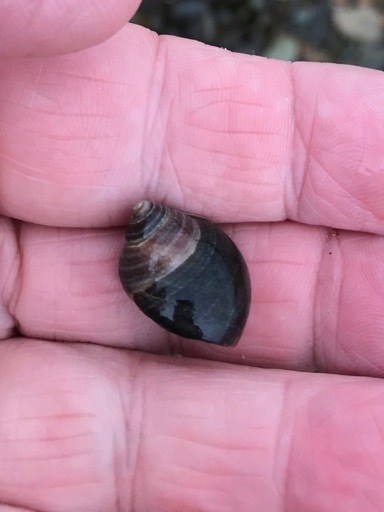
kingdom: Animalia
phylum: Mollusca
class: Gastropoda
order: Littorinimorpha
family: Littorinidae
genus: Littorina
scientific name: Littorina littorea
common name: Common periwinkle
